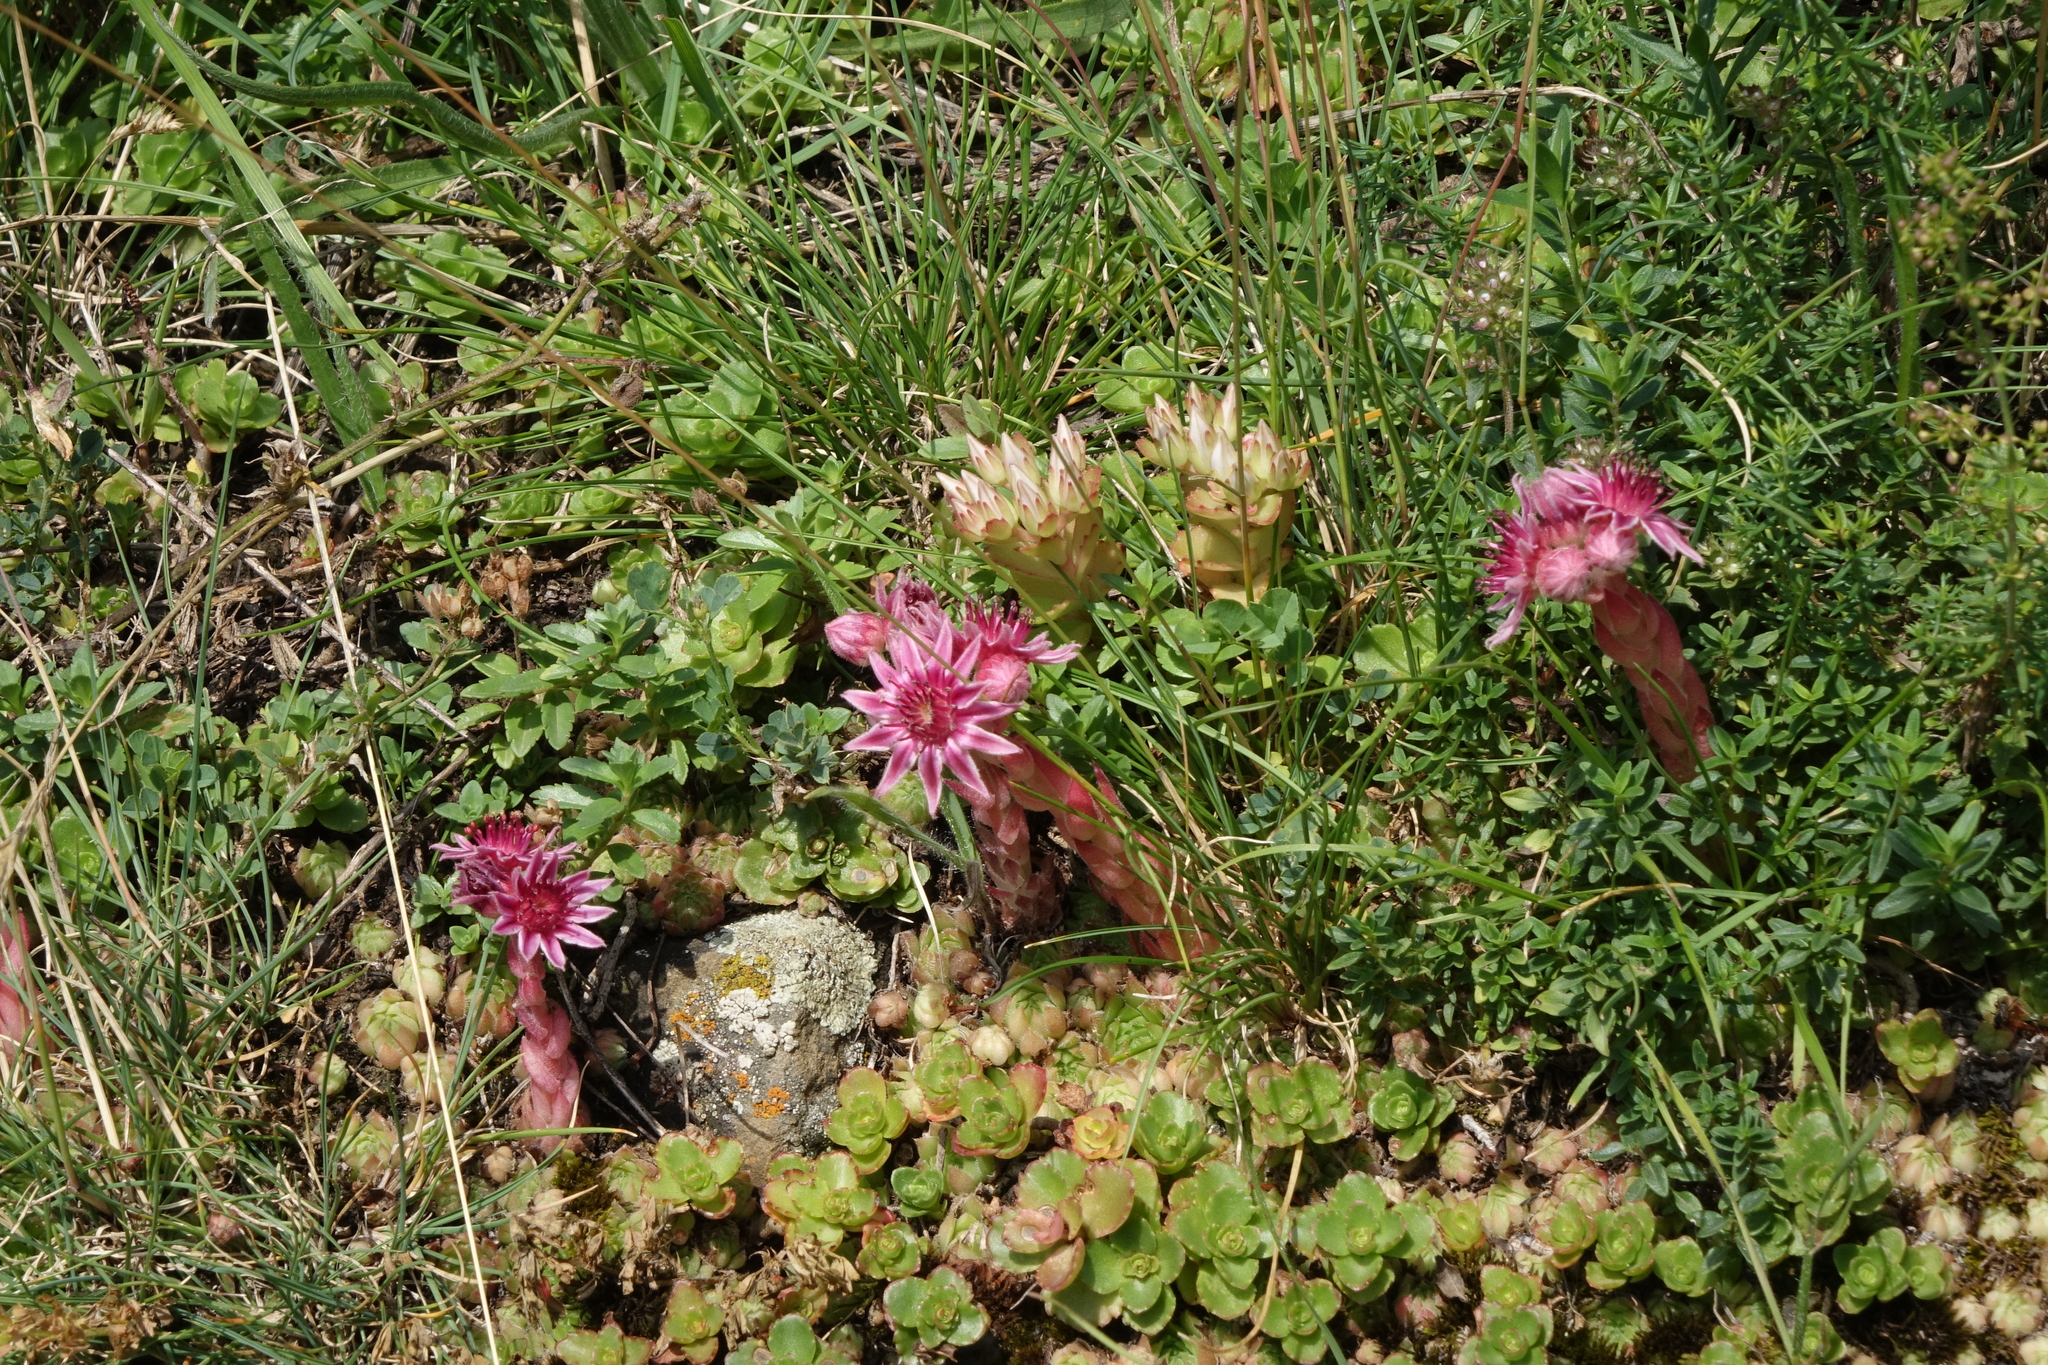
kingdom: Plantae
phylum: Tracheophyta
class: Magnoliopsida
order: Saxifragales
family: Crassulaceae
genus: Sempervivum
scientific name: Sempervivum caucasicum
